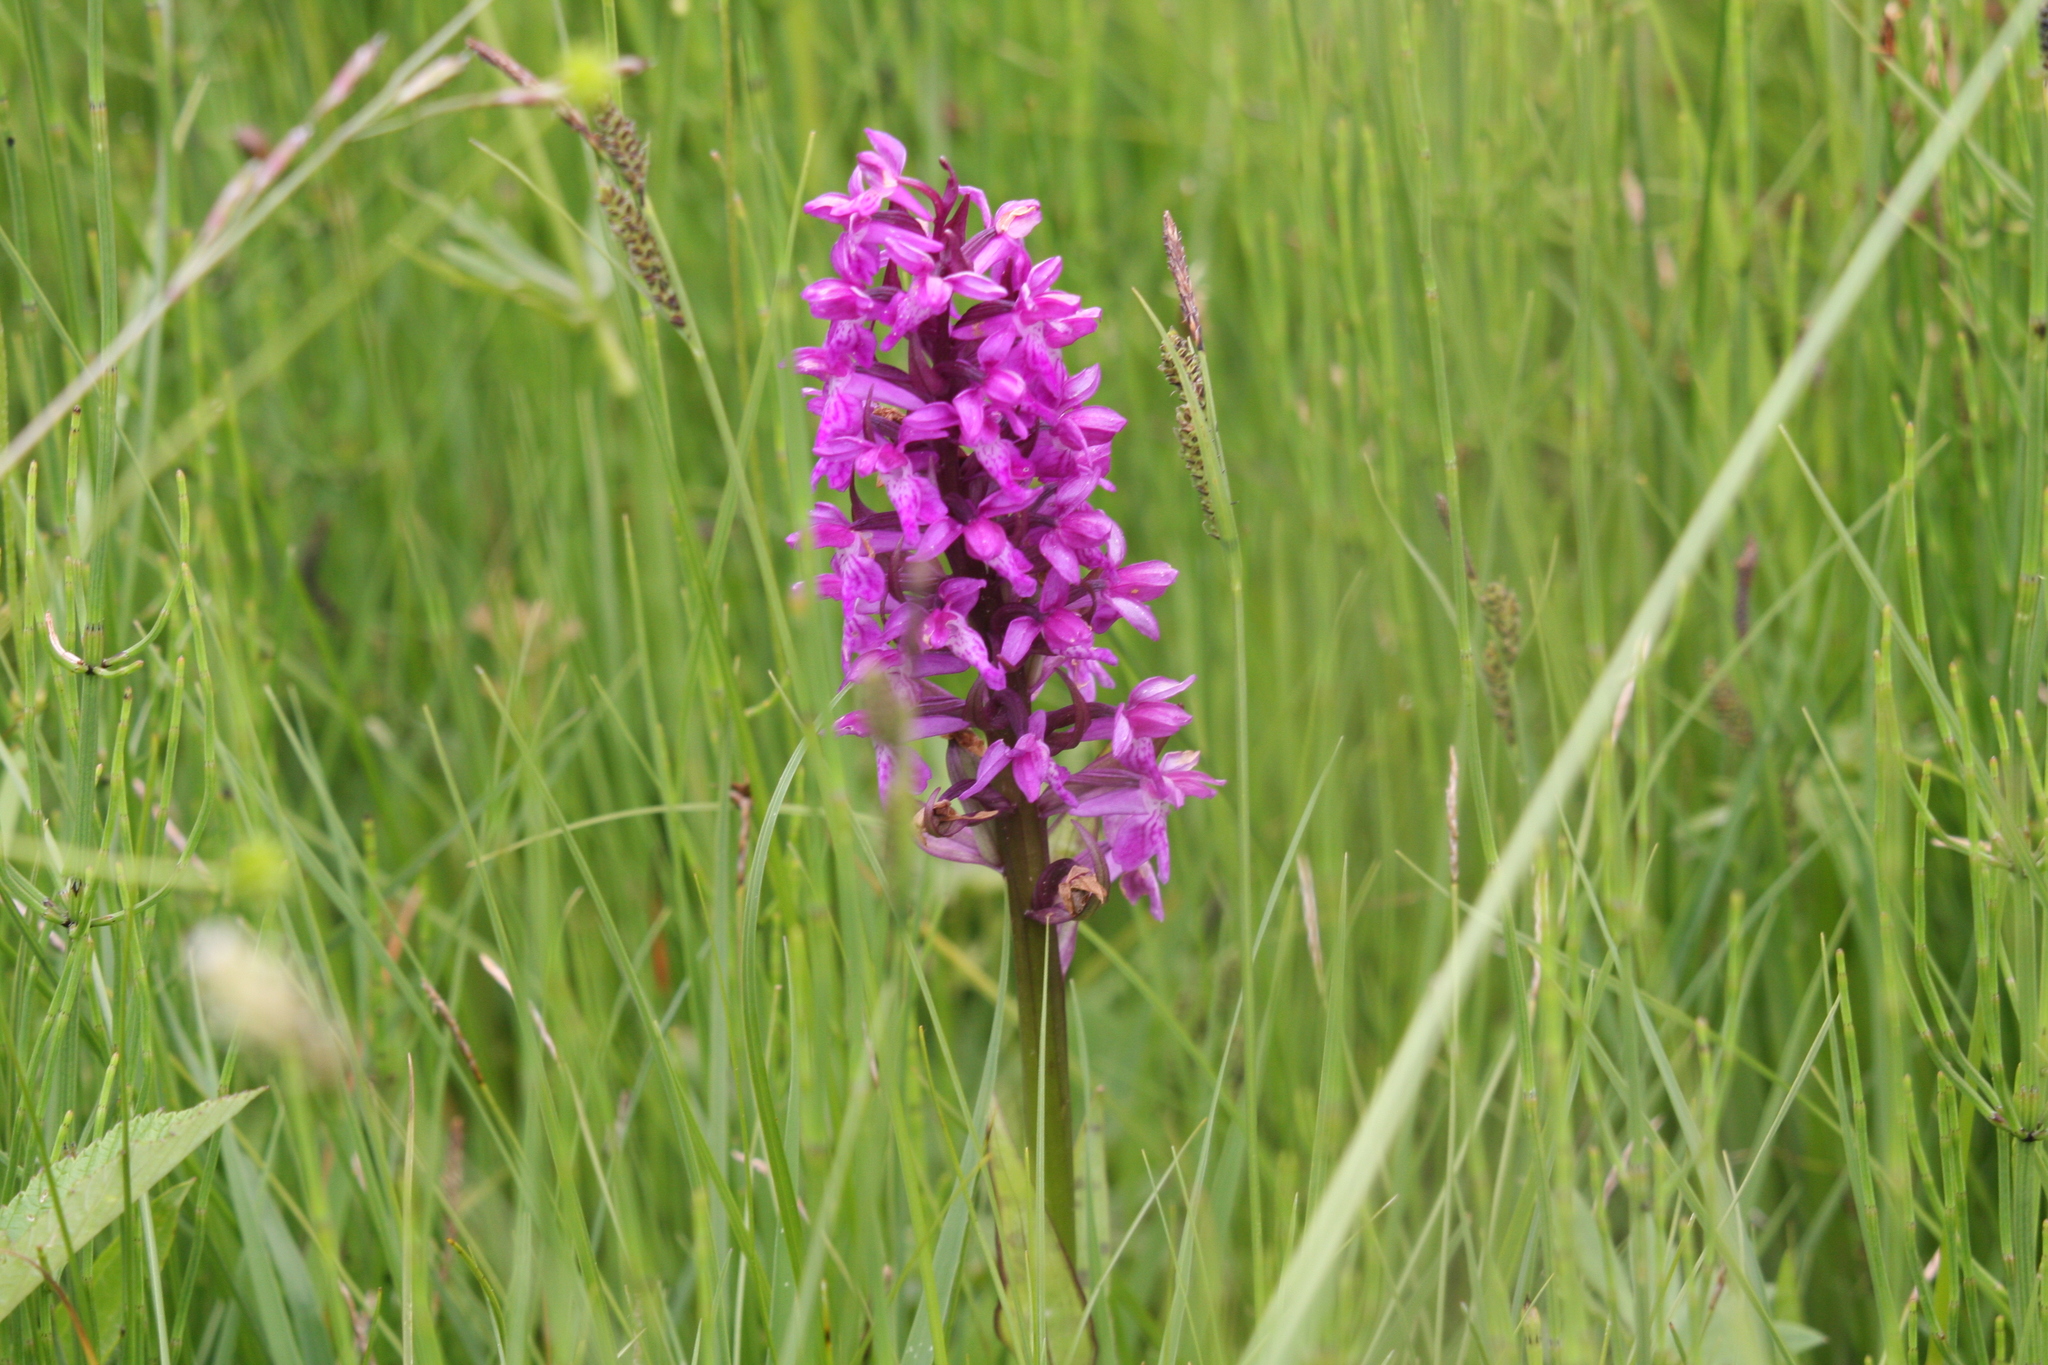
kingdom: Plantae
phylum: Tracheophyta
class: Liliopsida
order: Asparagales
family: Orchidaceae
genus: Dactylorhiza
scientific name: Dactylorhiza majalis
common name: Marsh orchid
